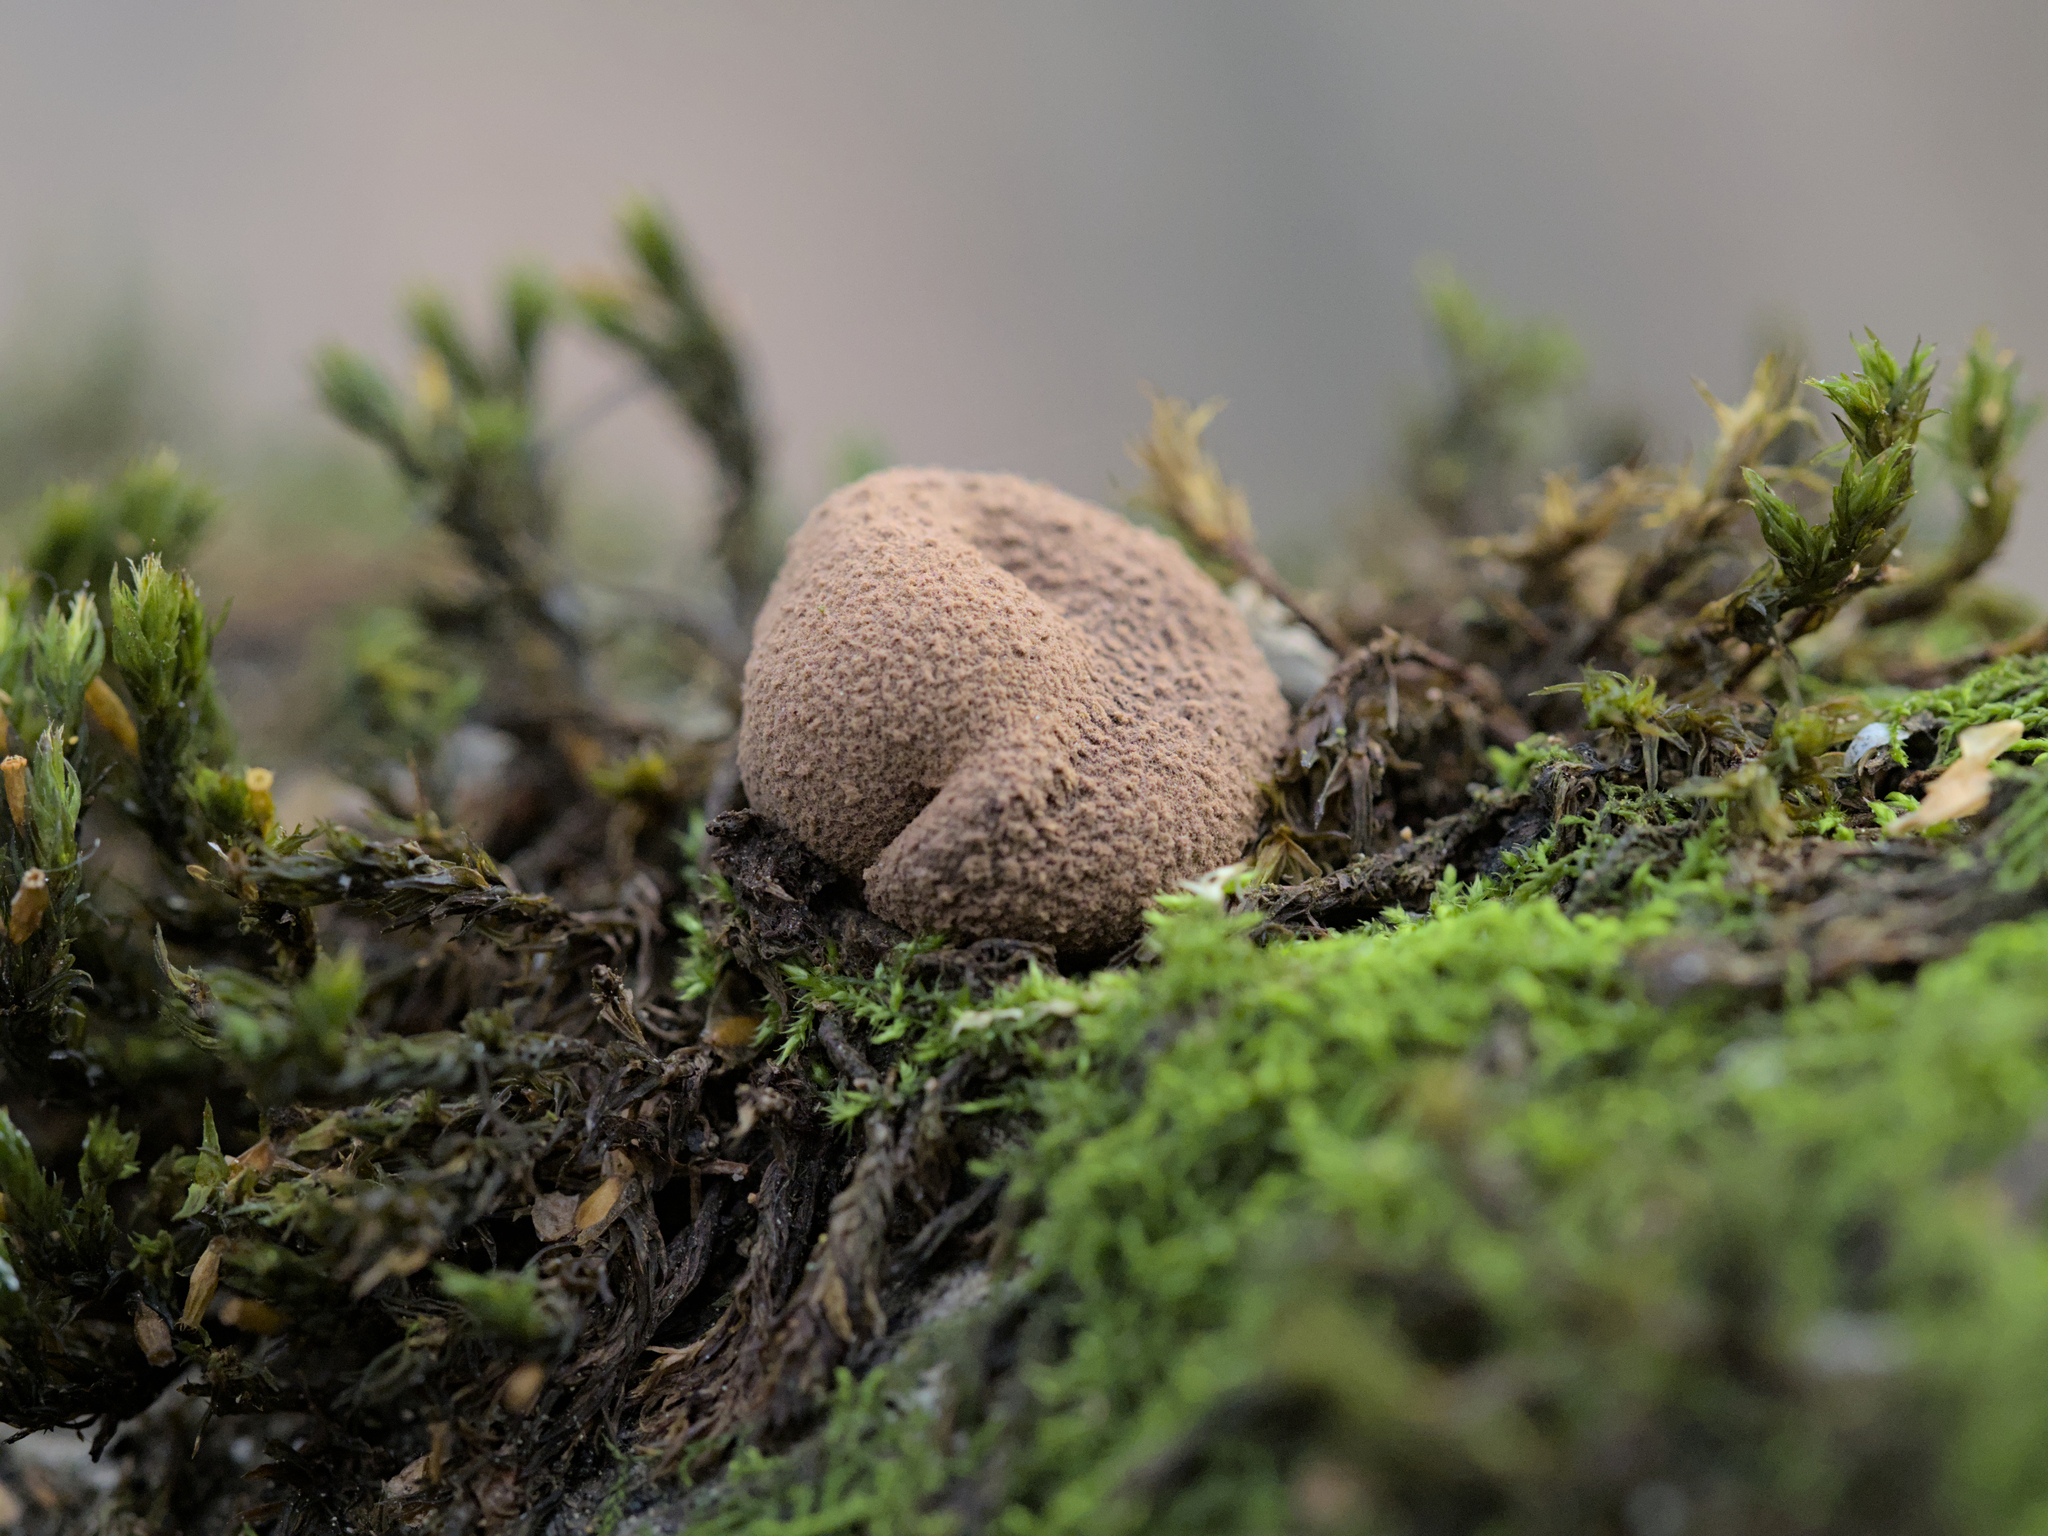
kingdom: Fungi
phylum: Ascomycota
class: Leotiomycetes
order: Helotiales
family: Cenangiaceae
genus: Encoelia
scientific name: Encoelia furfuracea
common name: Spring hazelcup
